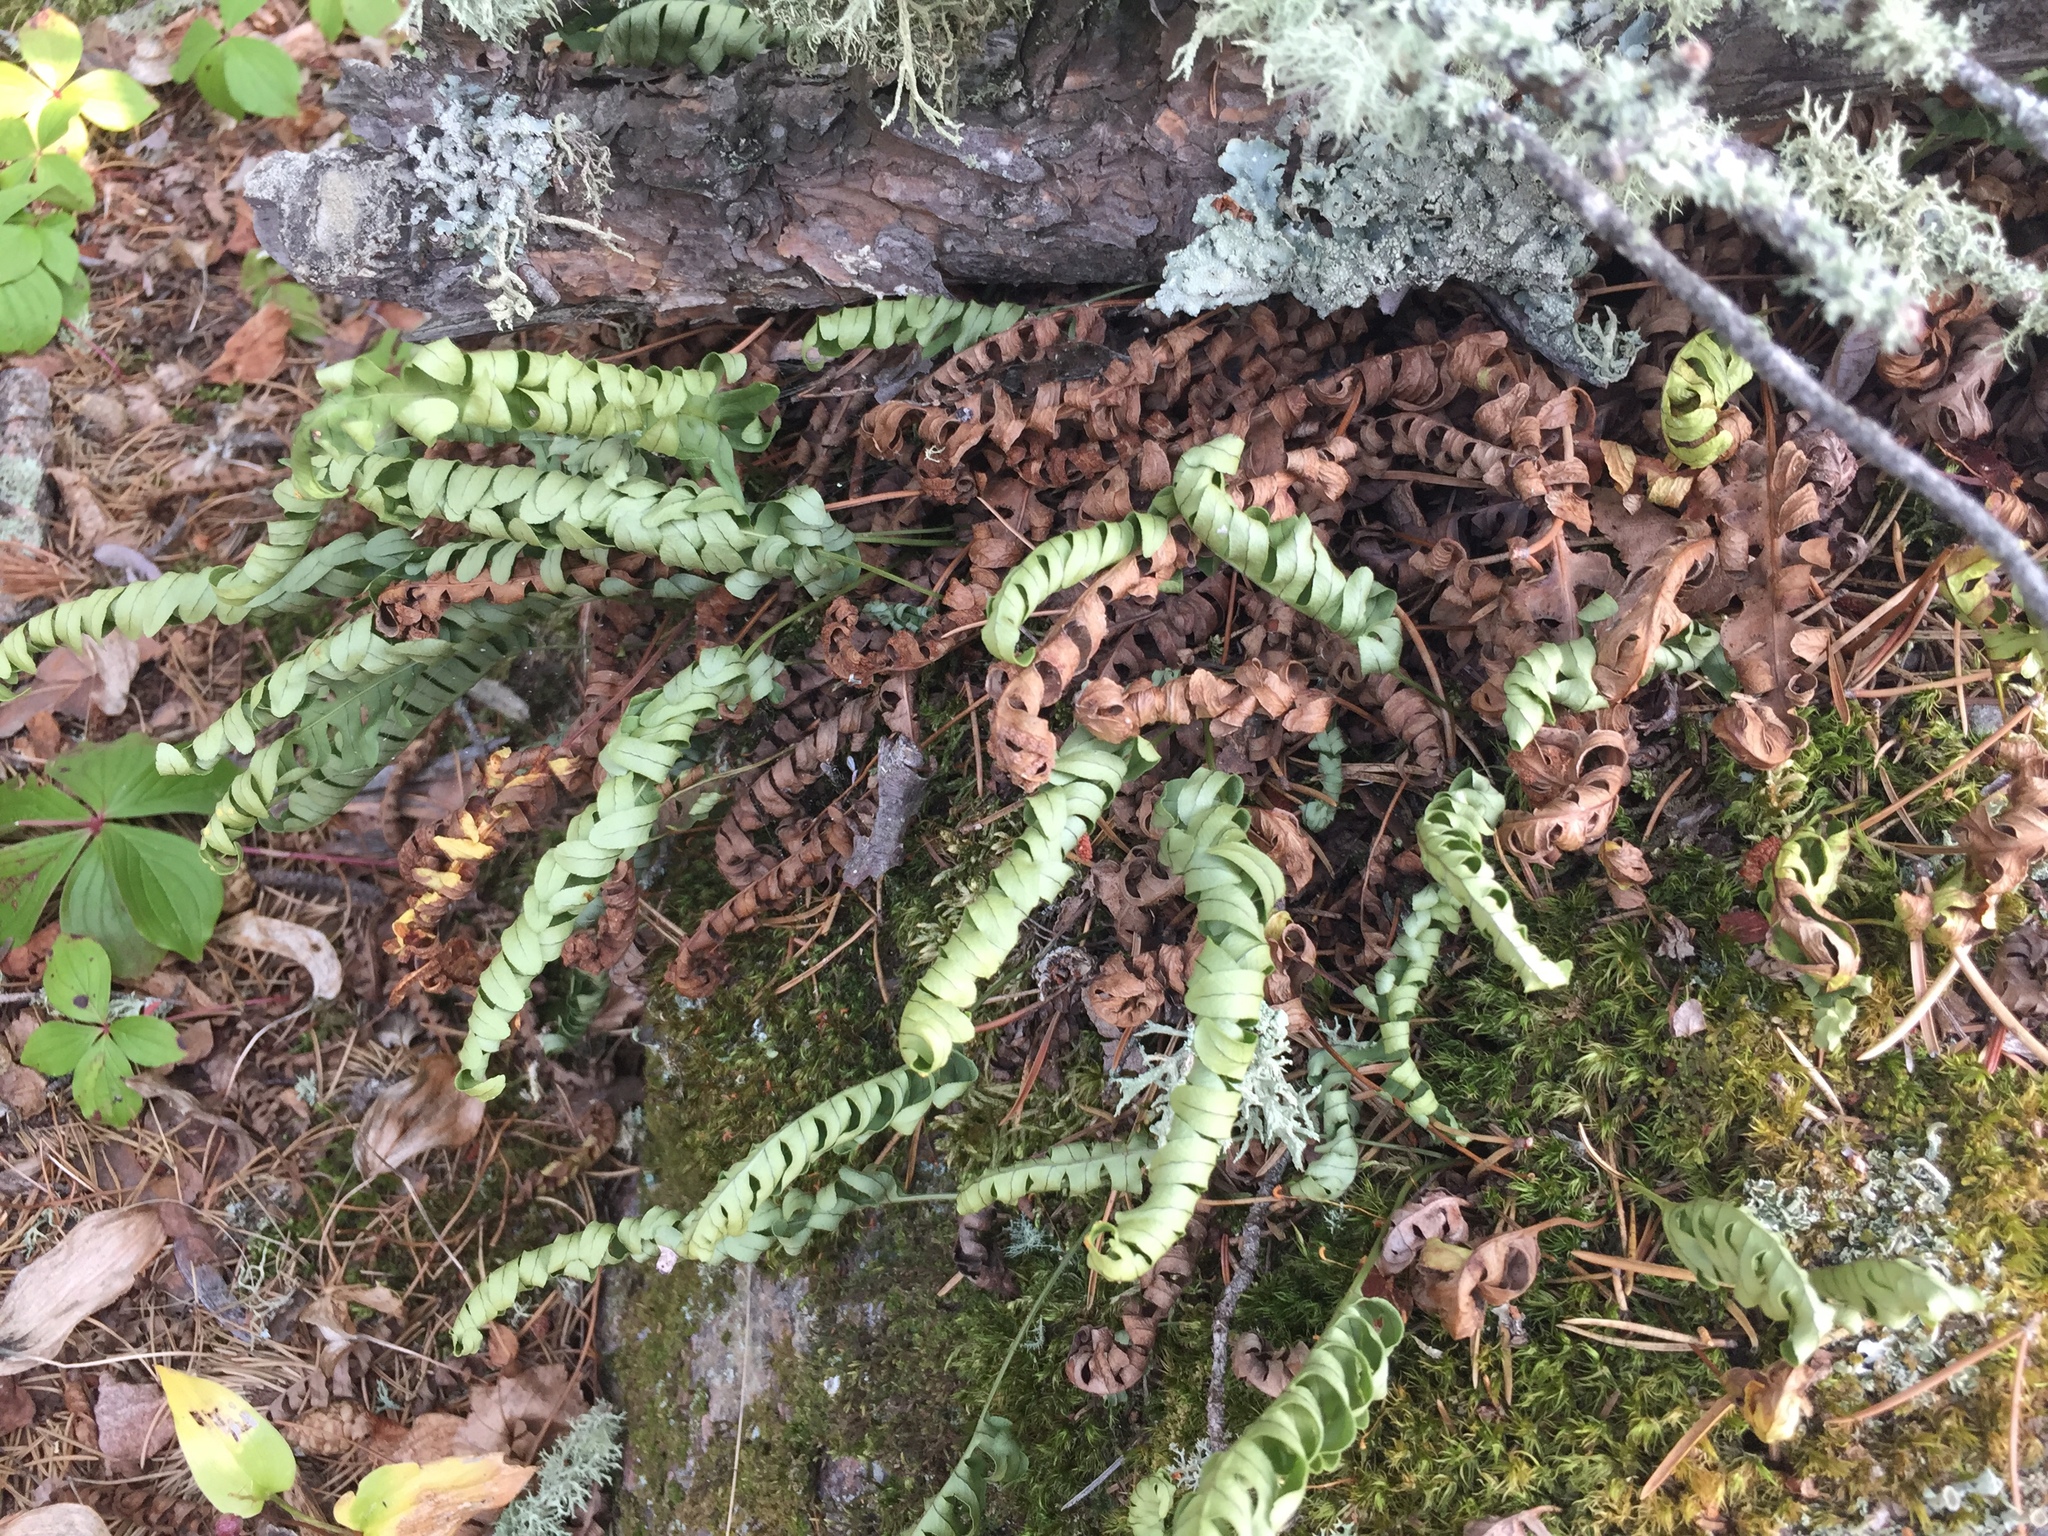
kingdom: Plantae
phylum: Tracheophyta
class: Polypodiopsida
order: Polypodiales
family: Polypodiaceae
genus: Polypodium
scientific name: Polypodium virginianum
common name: American wall fern
